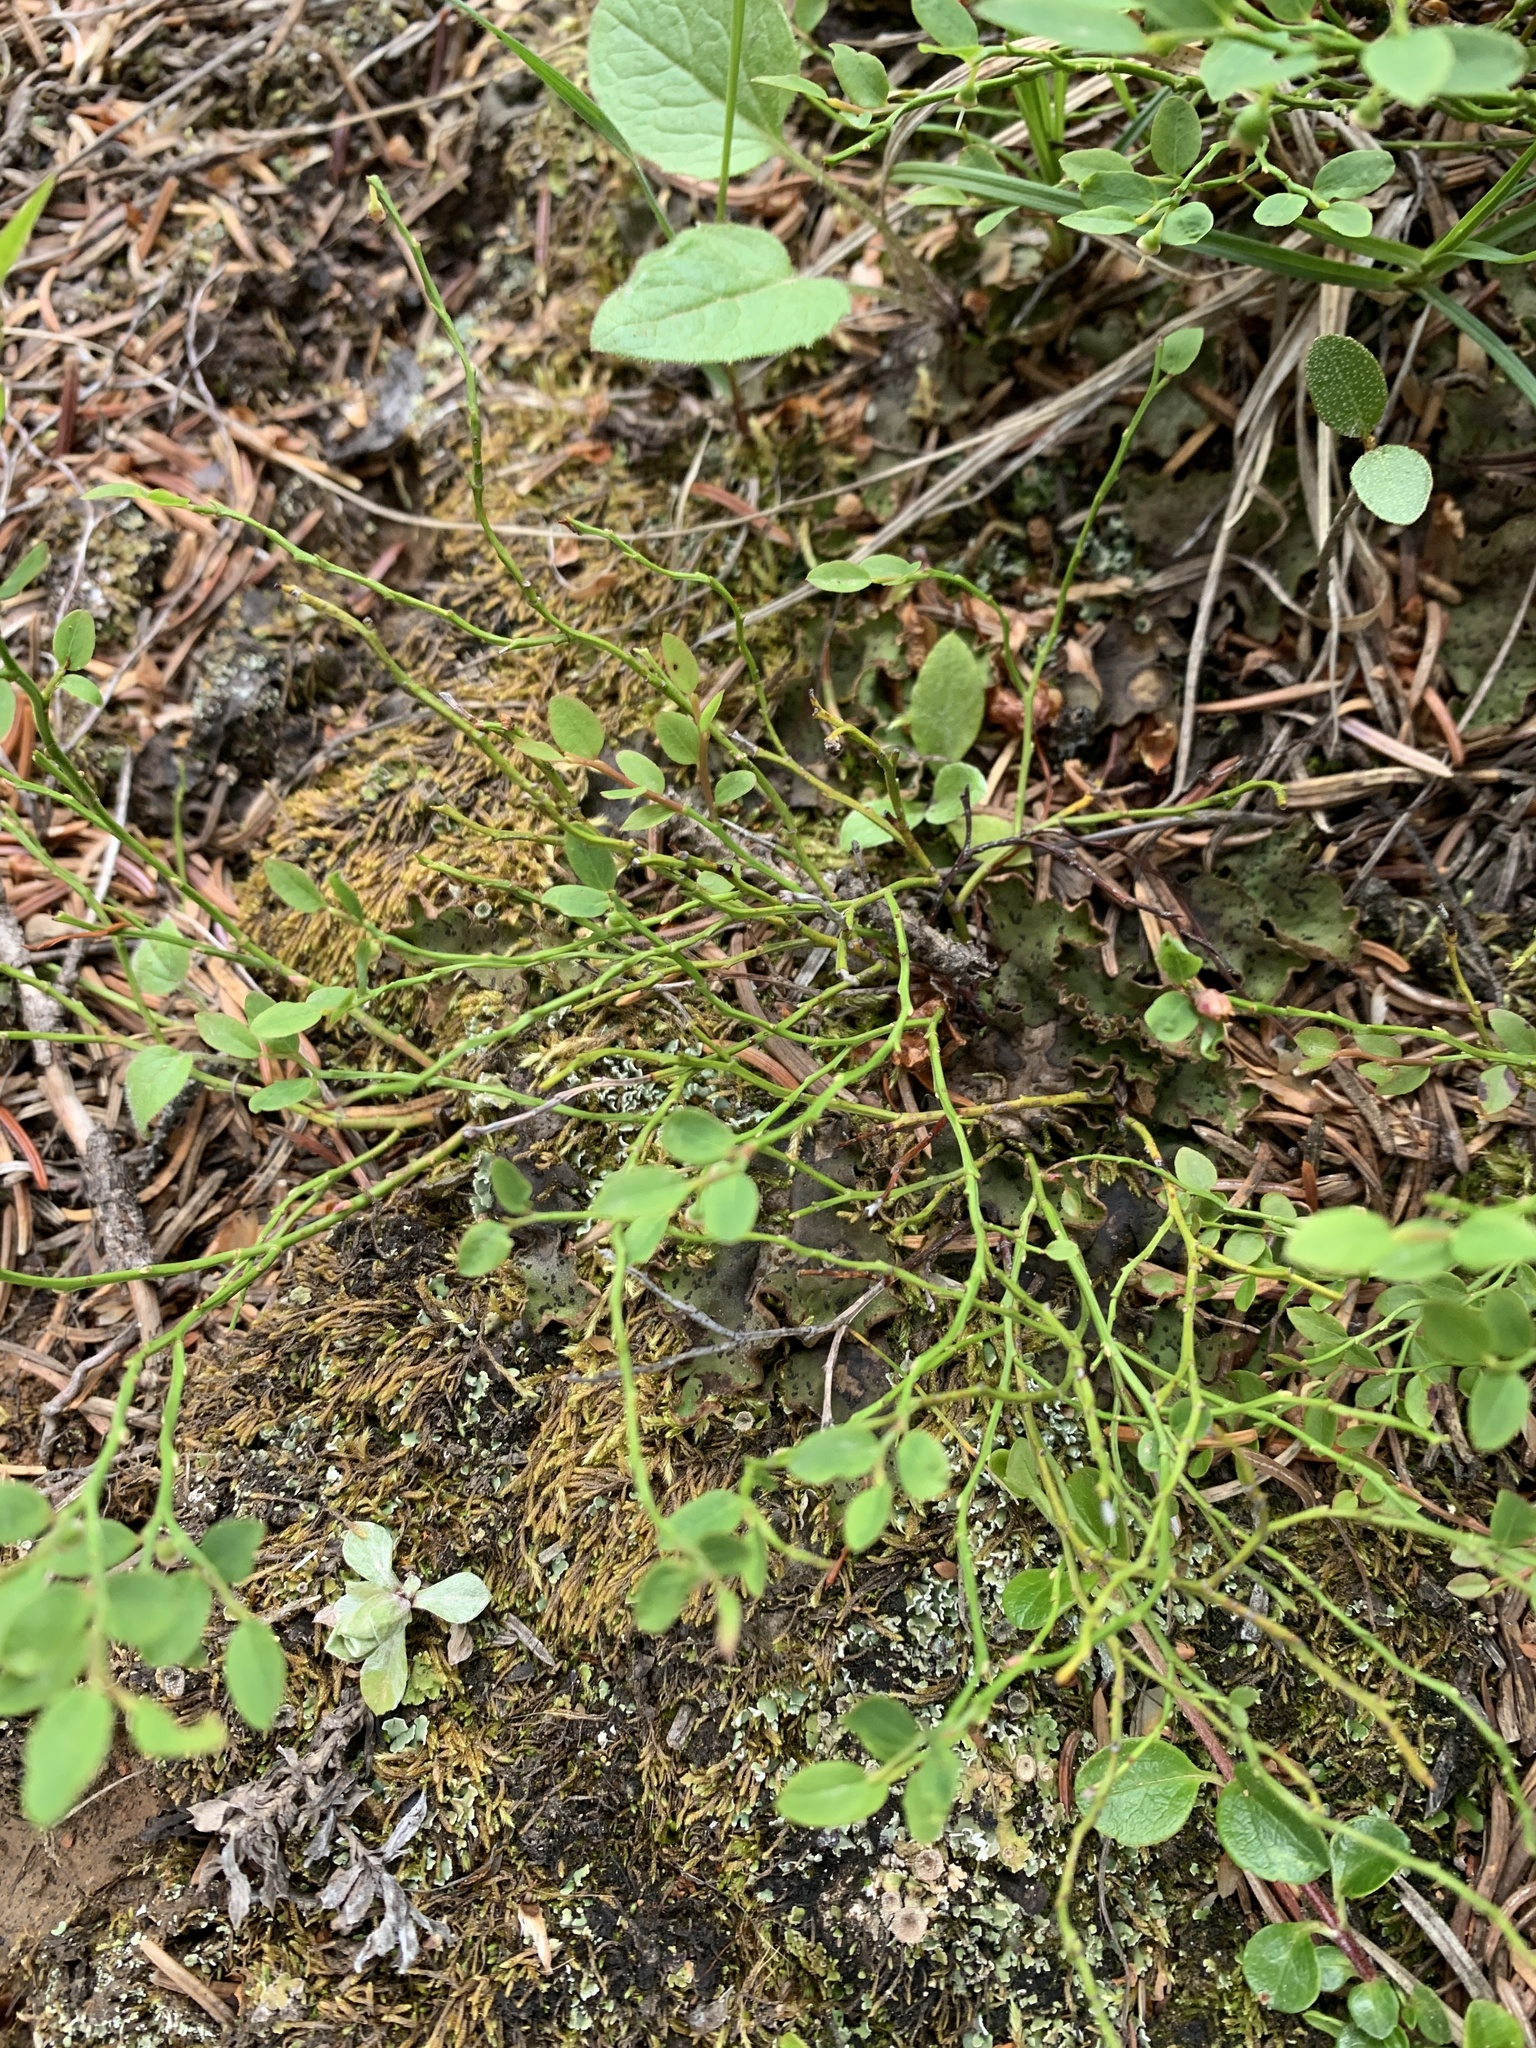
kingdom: Plantae
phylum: Tracheophyta
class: Magnoliopsida
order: Ericales
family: Ericaceae
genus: Vaccinium
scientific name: Vaccinium scoparium
